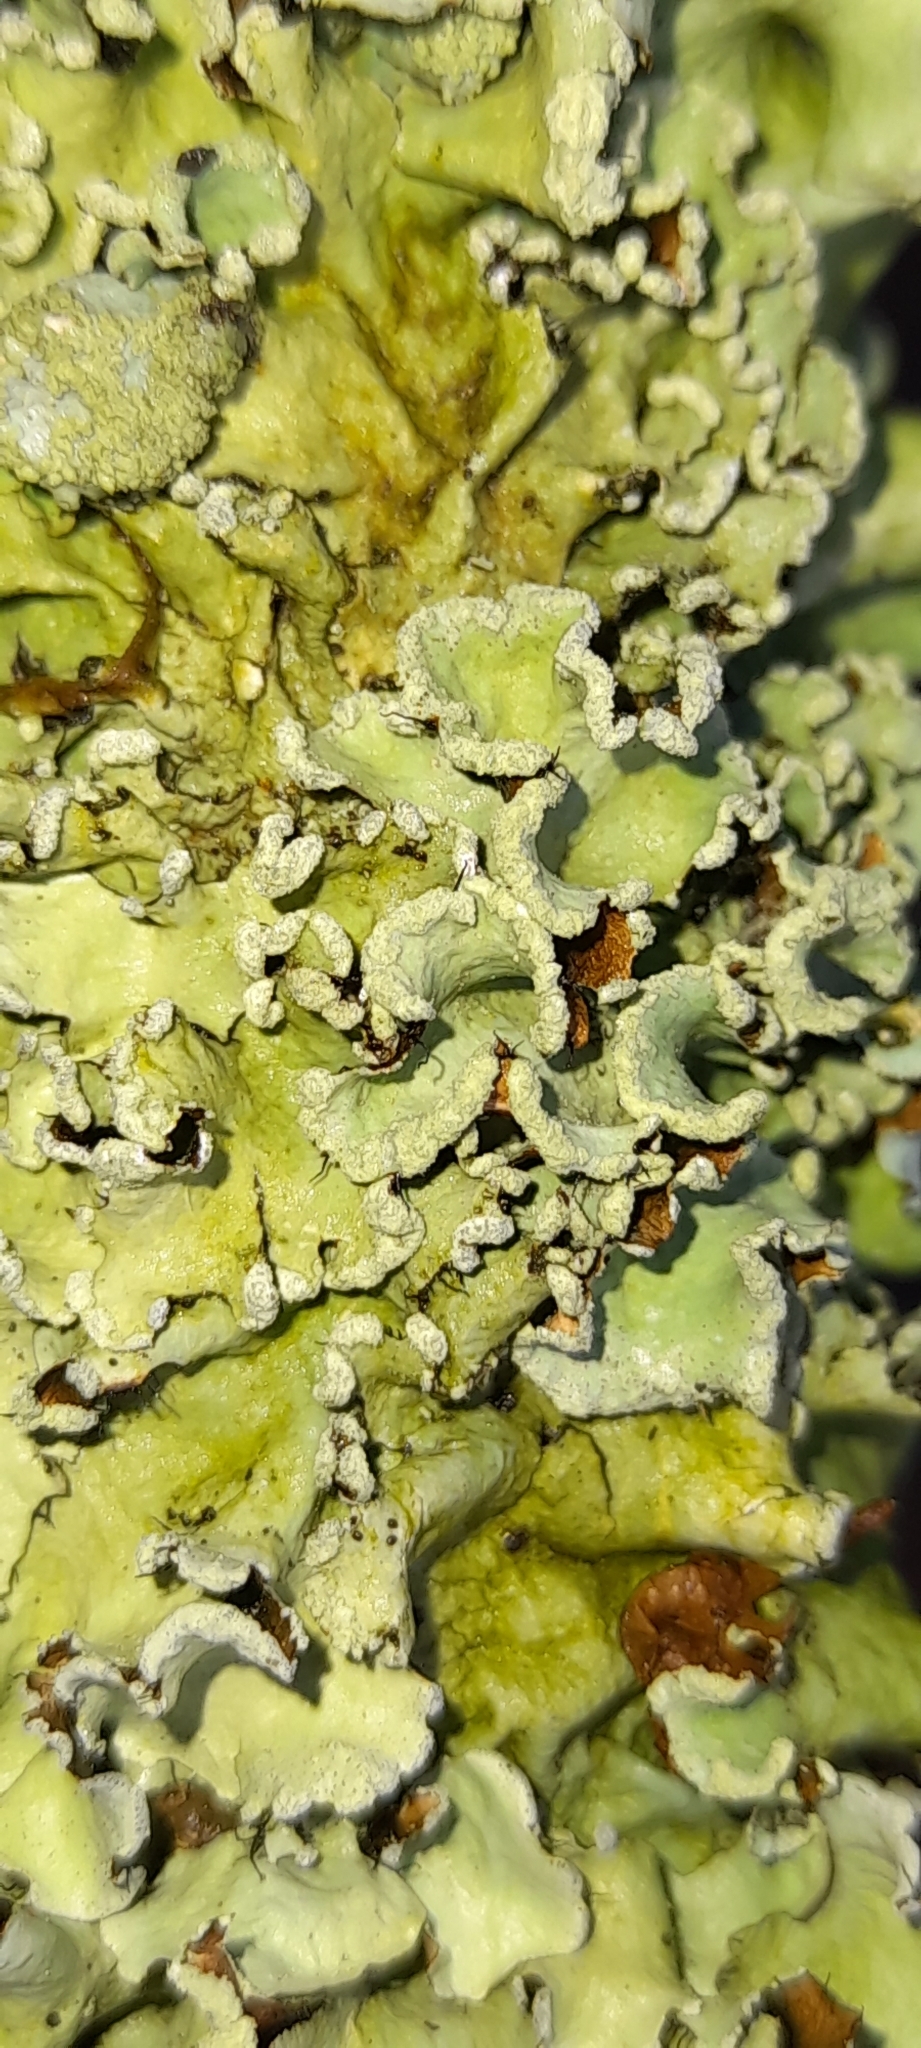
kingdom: Fungi
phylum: Ascomycota
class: Lecanoromycetes
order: Lecanorales
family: Parmeliaceae
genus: Parmotrema
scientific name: Parmotrema perlatum
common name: Black stone flower
